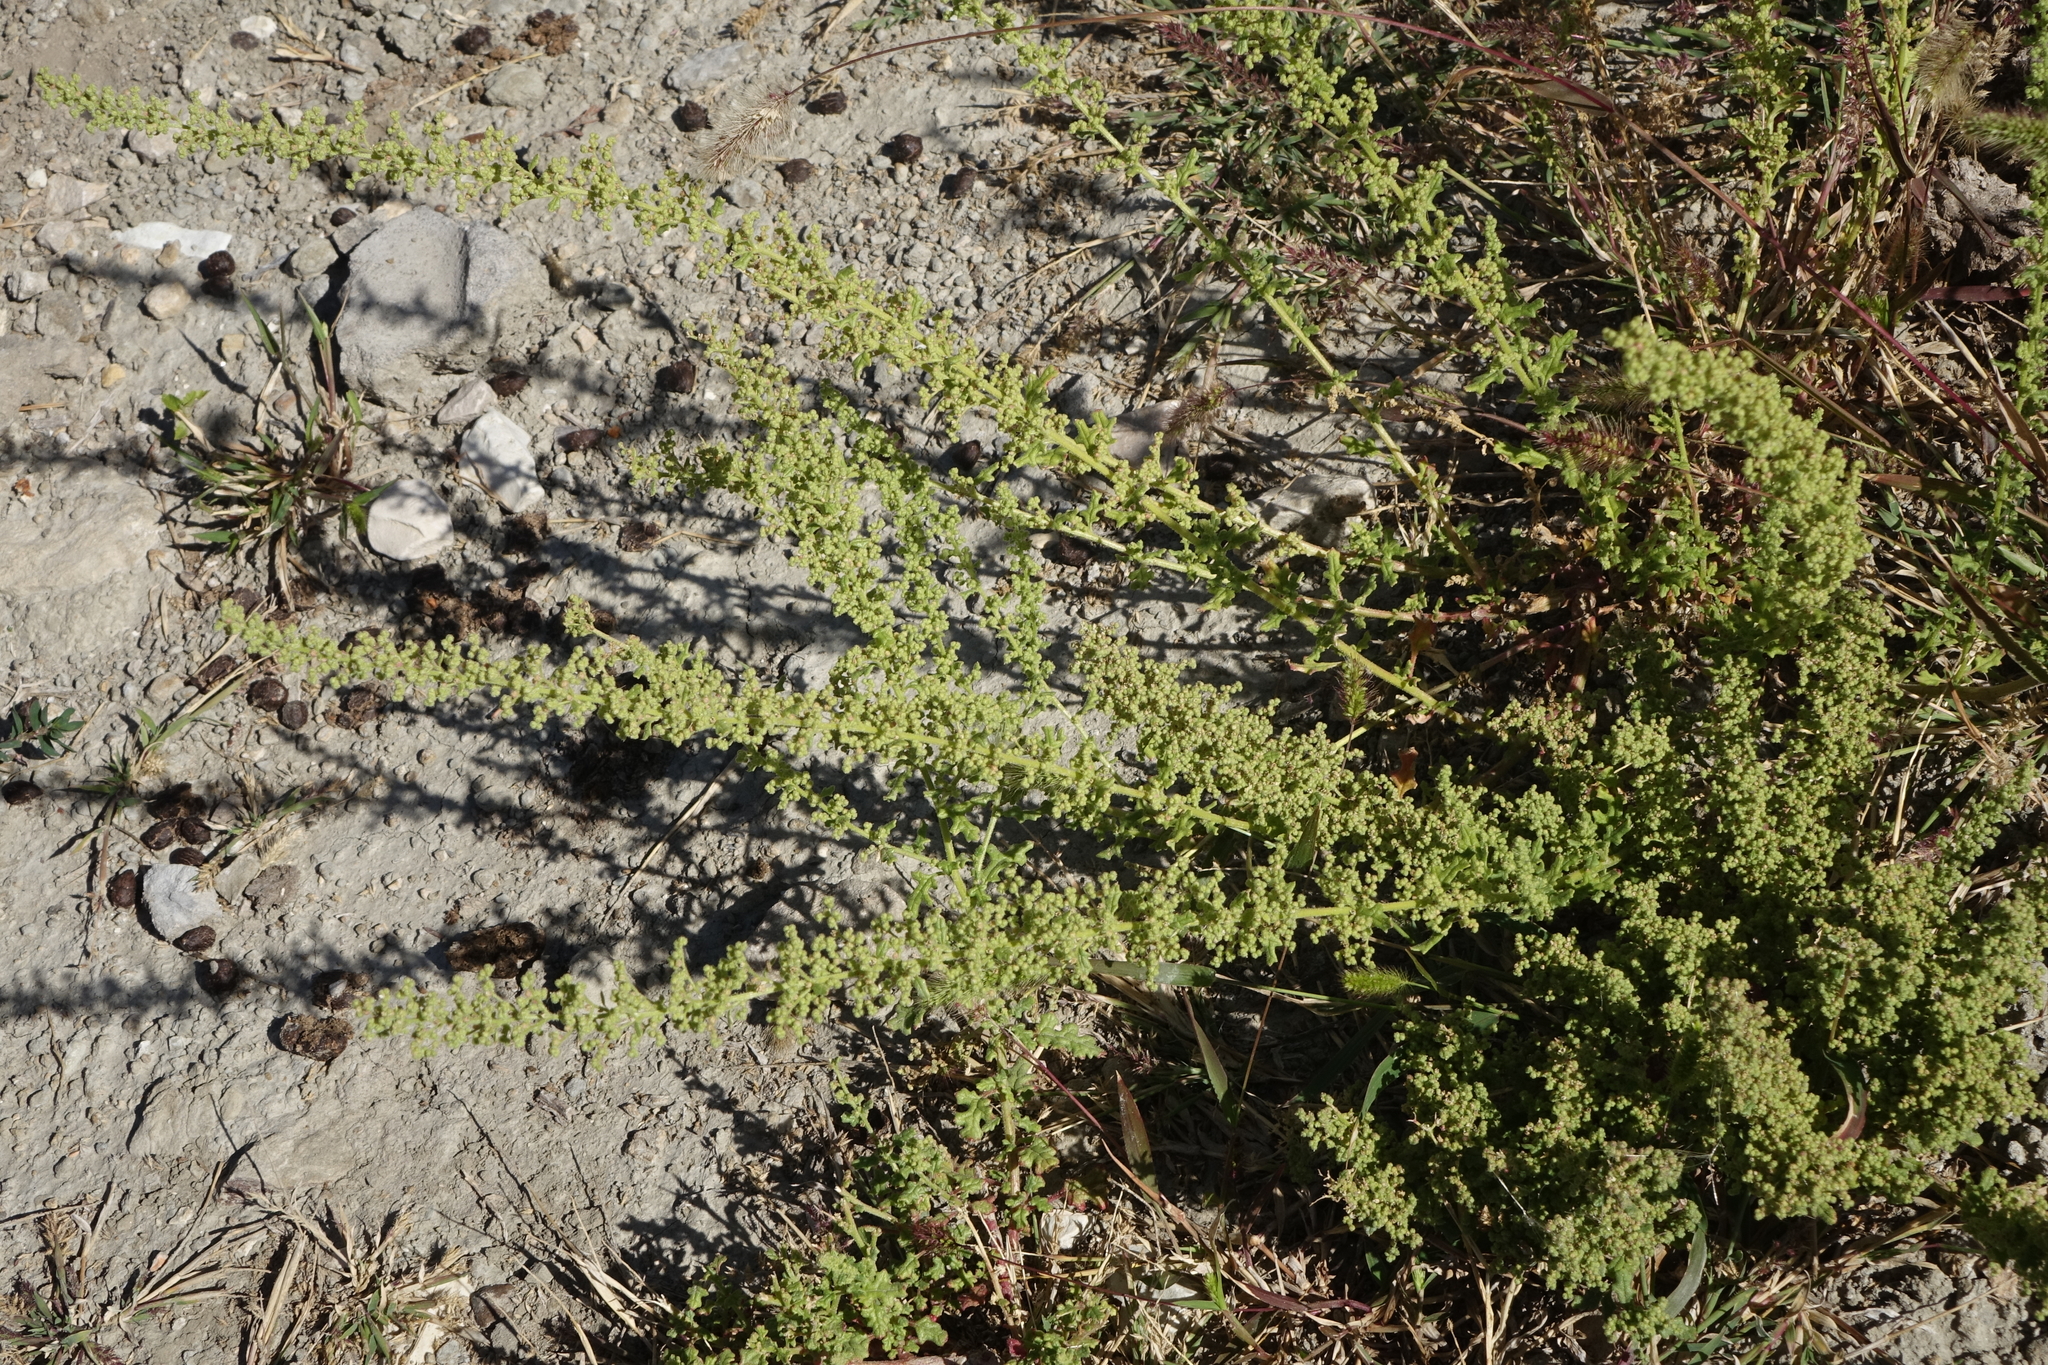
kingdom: Plantae
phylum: Tracheophyta
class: Magnoliopsida
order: Caryophyllales
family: Amaranthaceae
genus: Dysphania
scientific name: Dysphania botrys
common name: Feather-geranium
